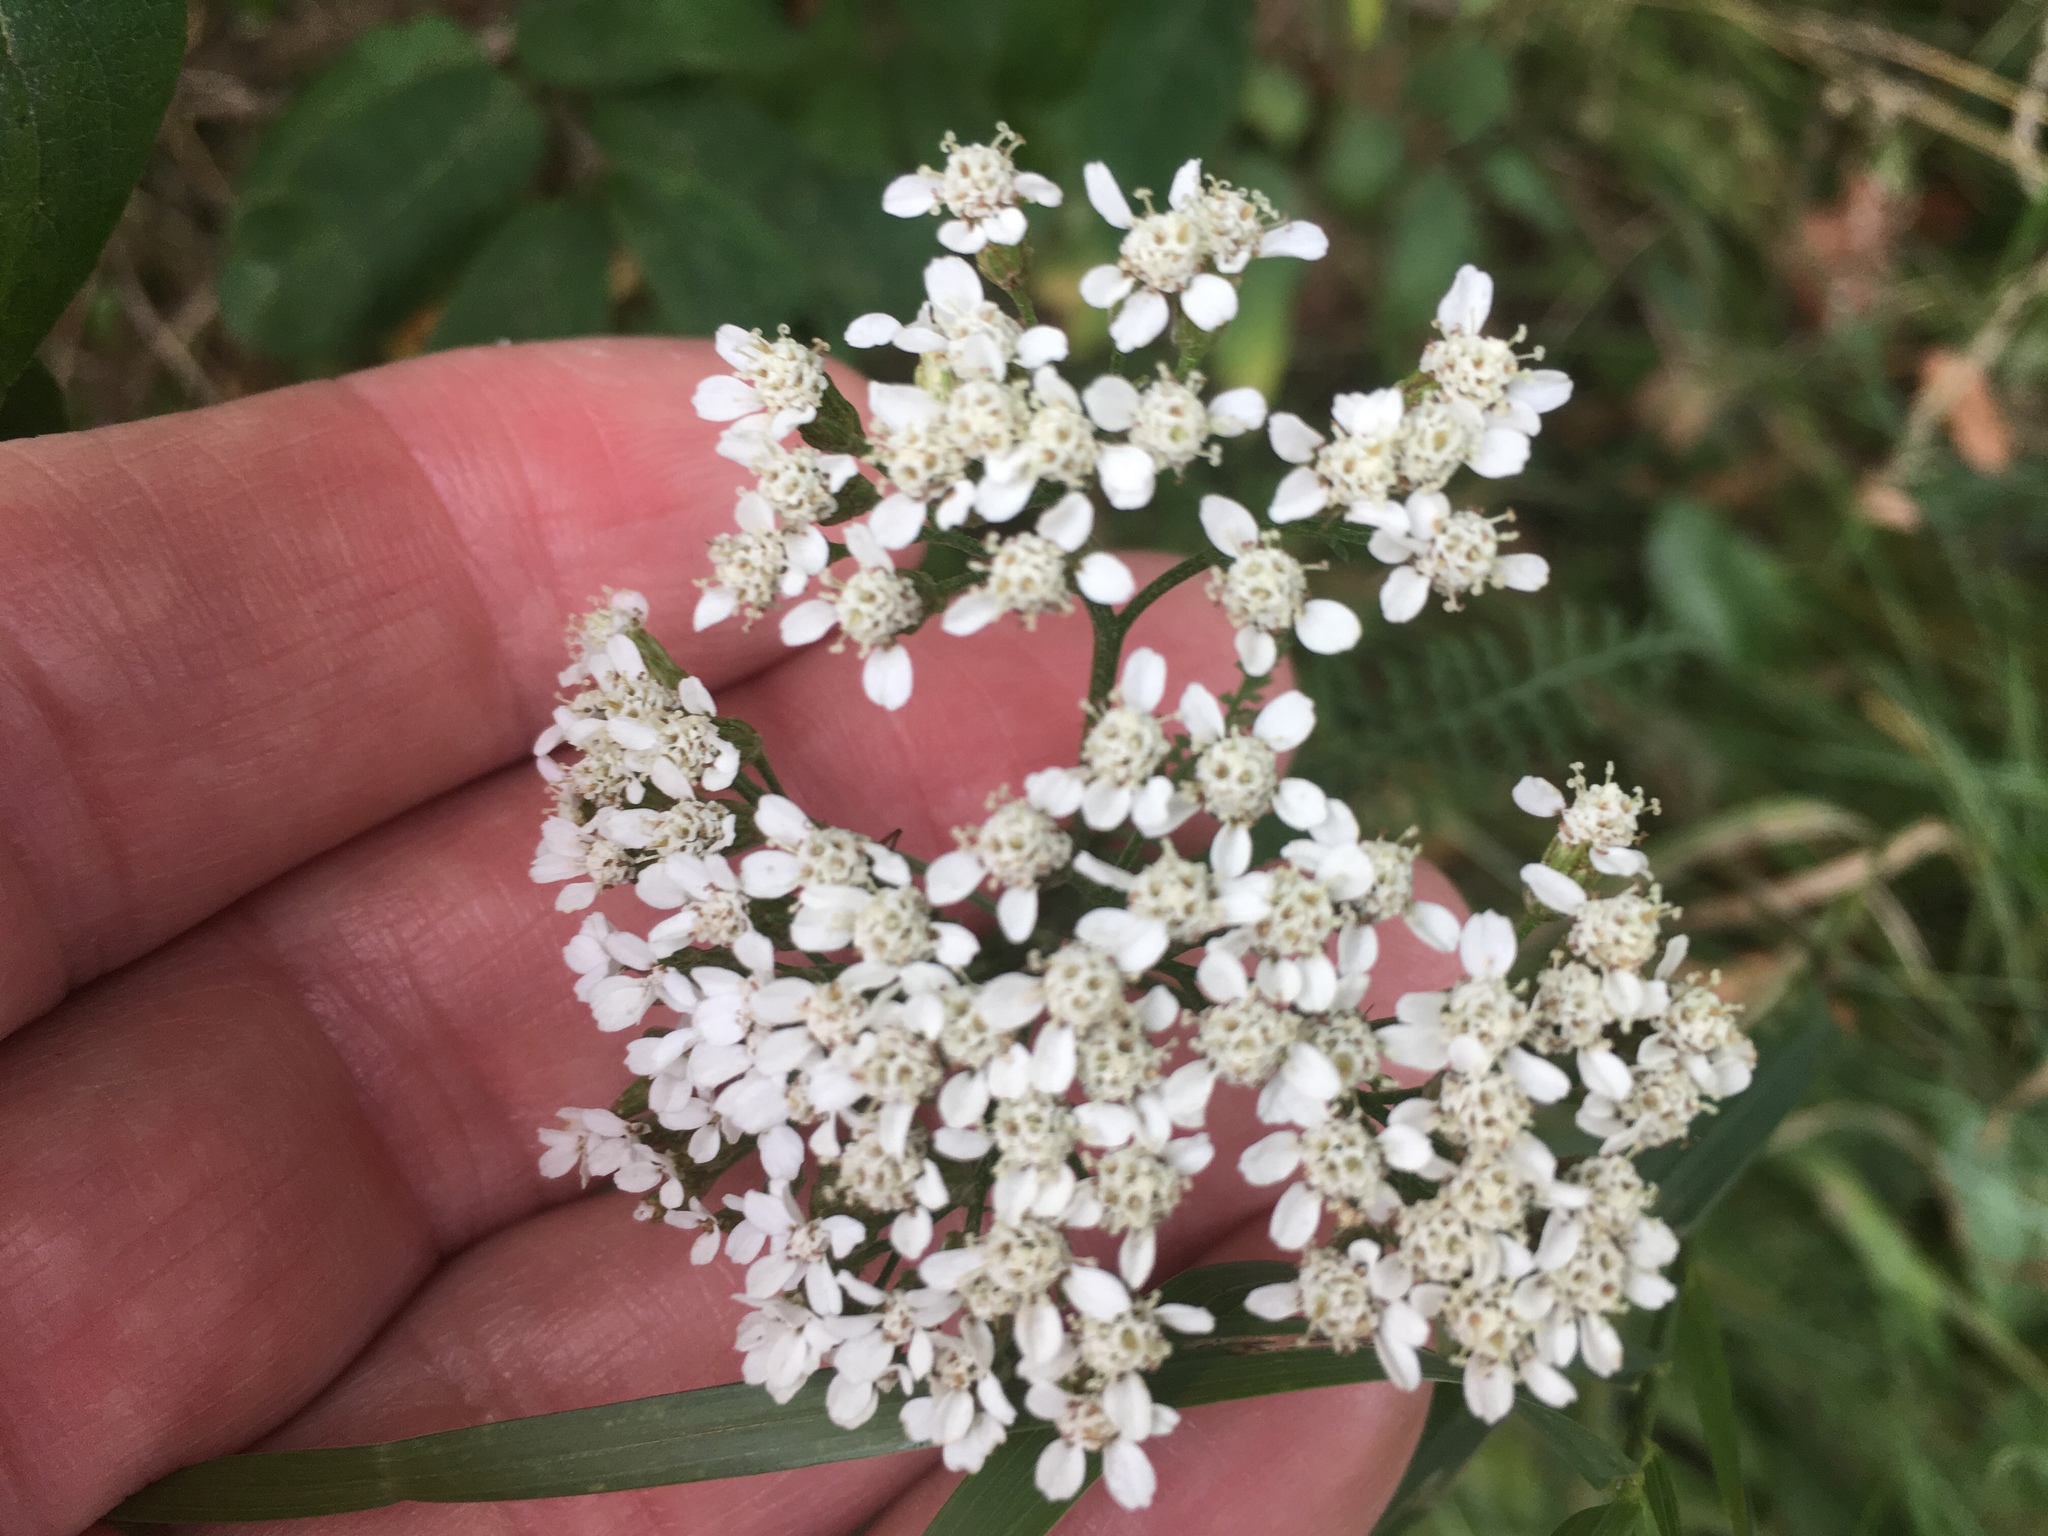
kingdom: Plantae
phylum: Tracheophyta
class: Magnoliopsida
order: Asterales
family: Asteraceae
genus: Achillea
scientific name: Achillea millefolium
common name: Yarrow
